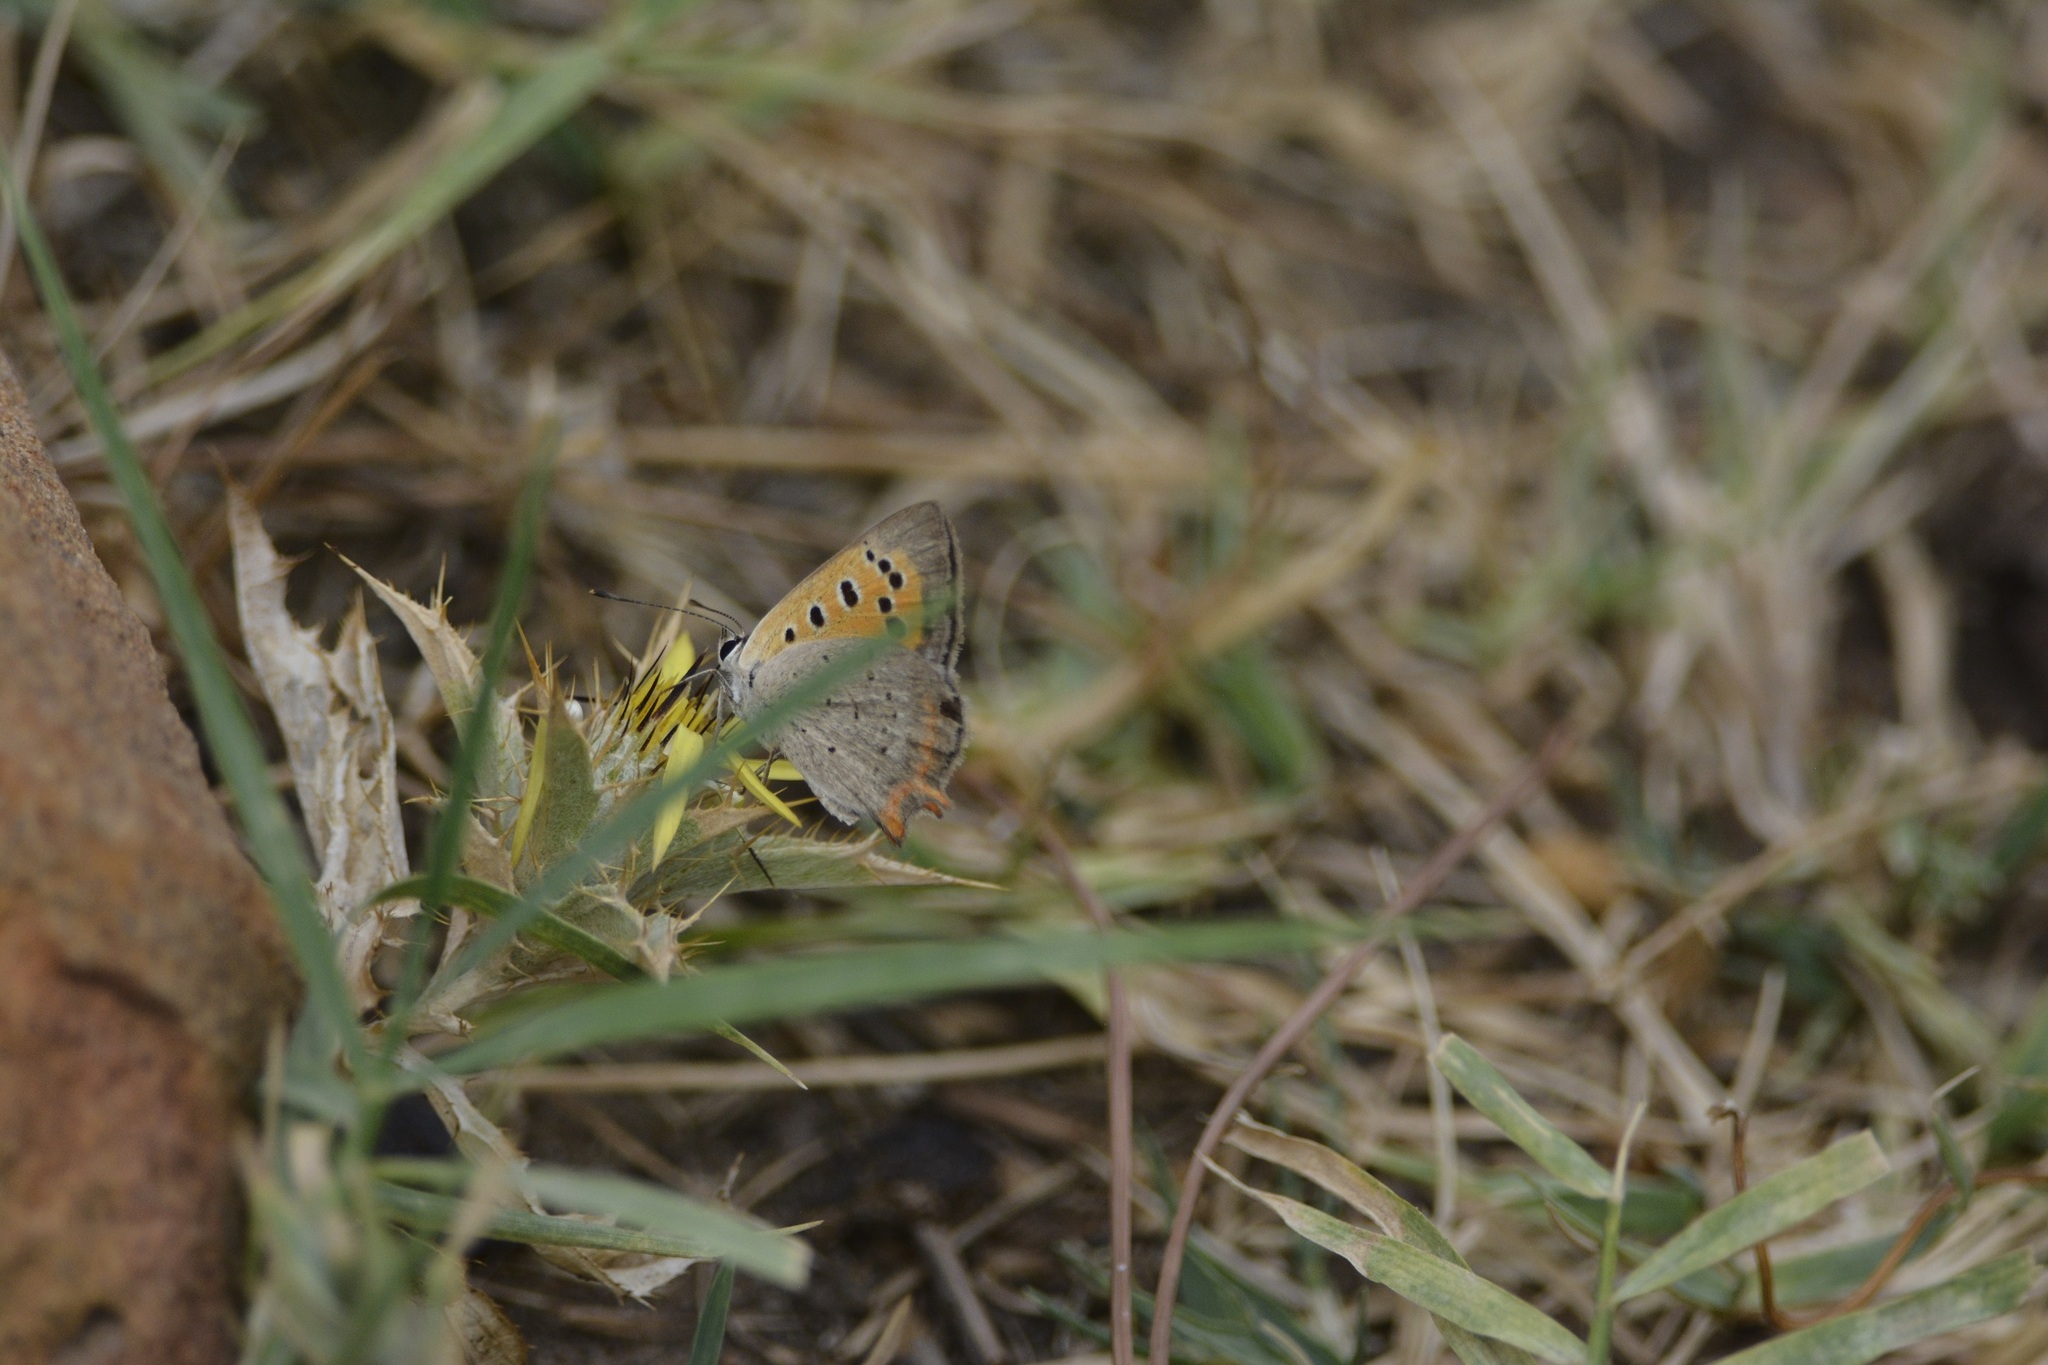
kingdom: Animalia
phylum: Arthropoda
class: Insecta
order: Lepidoptera
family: Lycaenidae
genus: Lycaena
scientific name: Lycaena phlaeas
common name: Small copper
